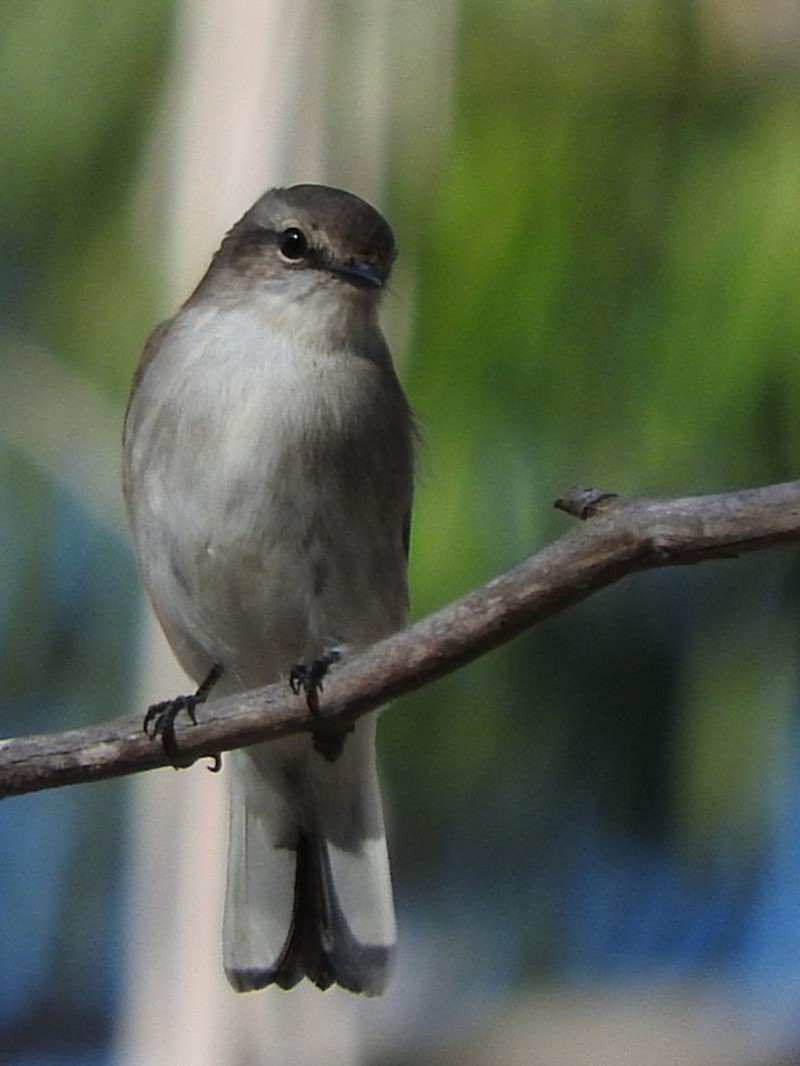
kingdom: Animalia
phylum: Chordata
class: Aves
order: Passeriformes
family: Petroicidae
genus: Microeca
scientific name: Microeca fascinans
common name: Jacky winter
